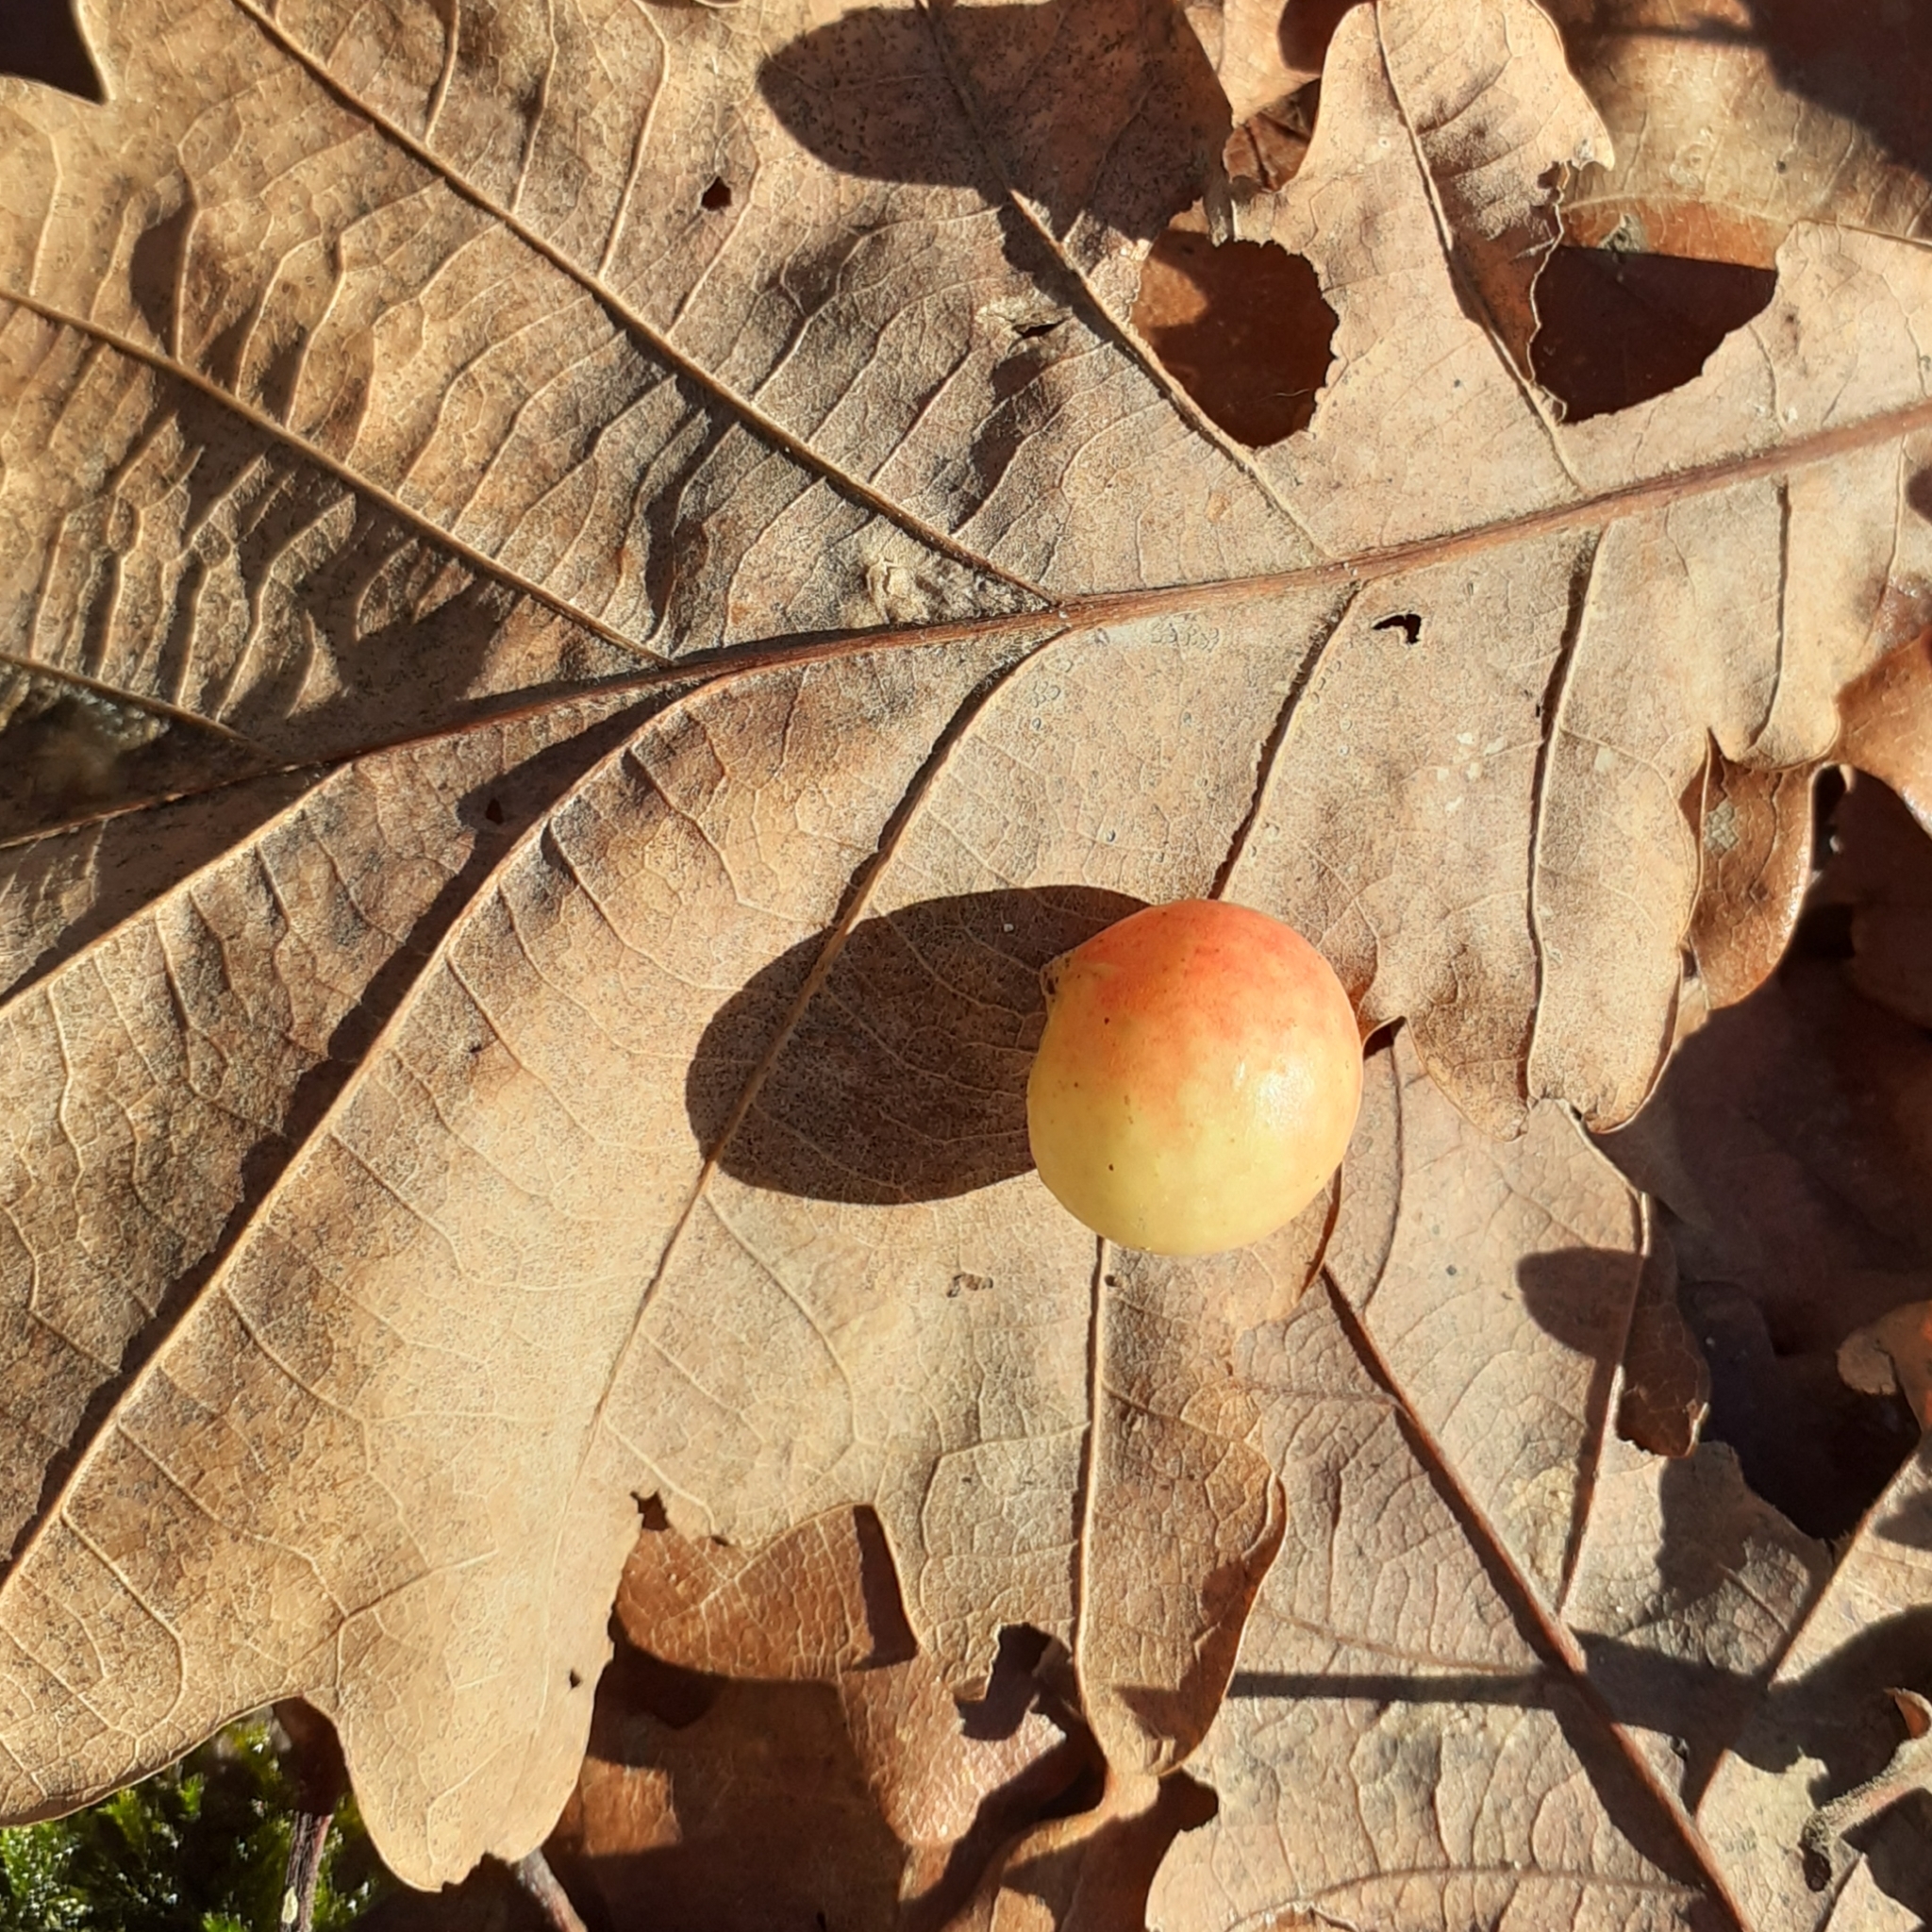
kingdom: Animalia
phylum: Arthropoda
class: Insecta
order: Hymenoptera
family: Cynipidae
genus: Cynips
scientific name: Cynips quercusfolii
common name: Cherry gall
